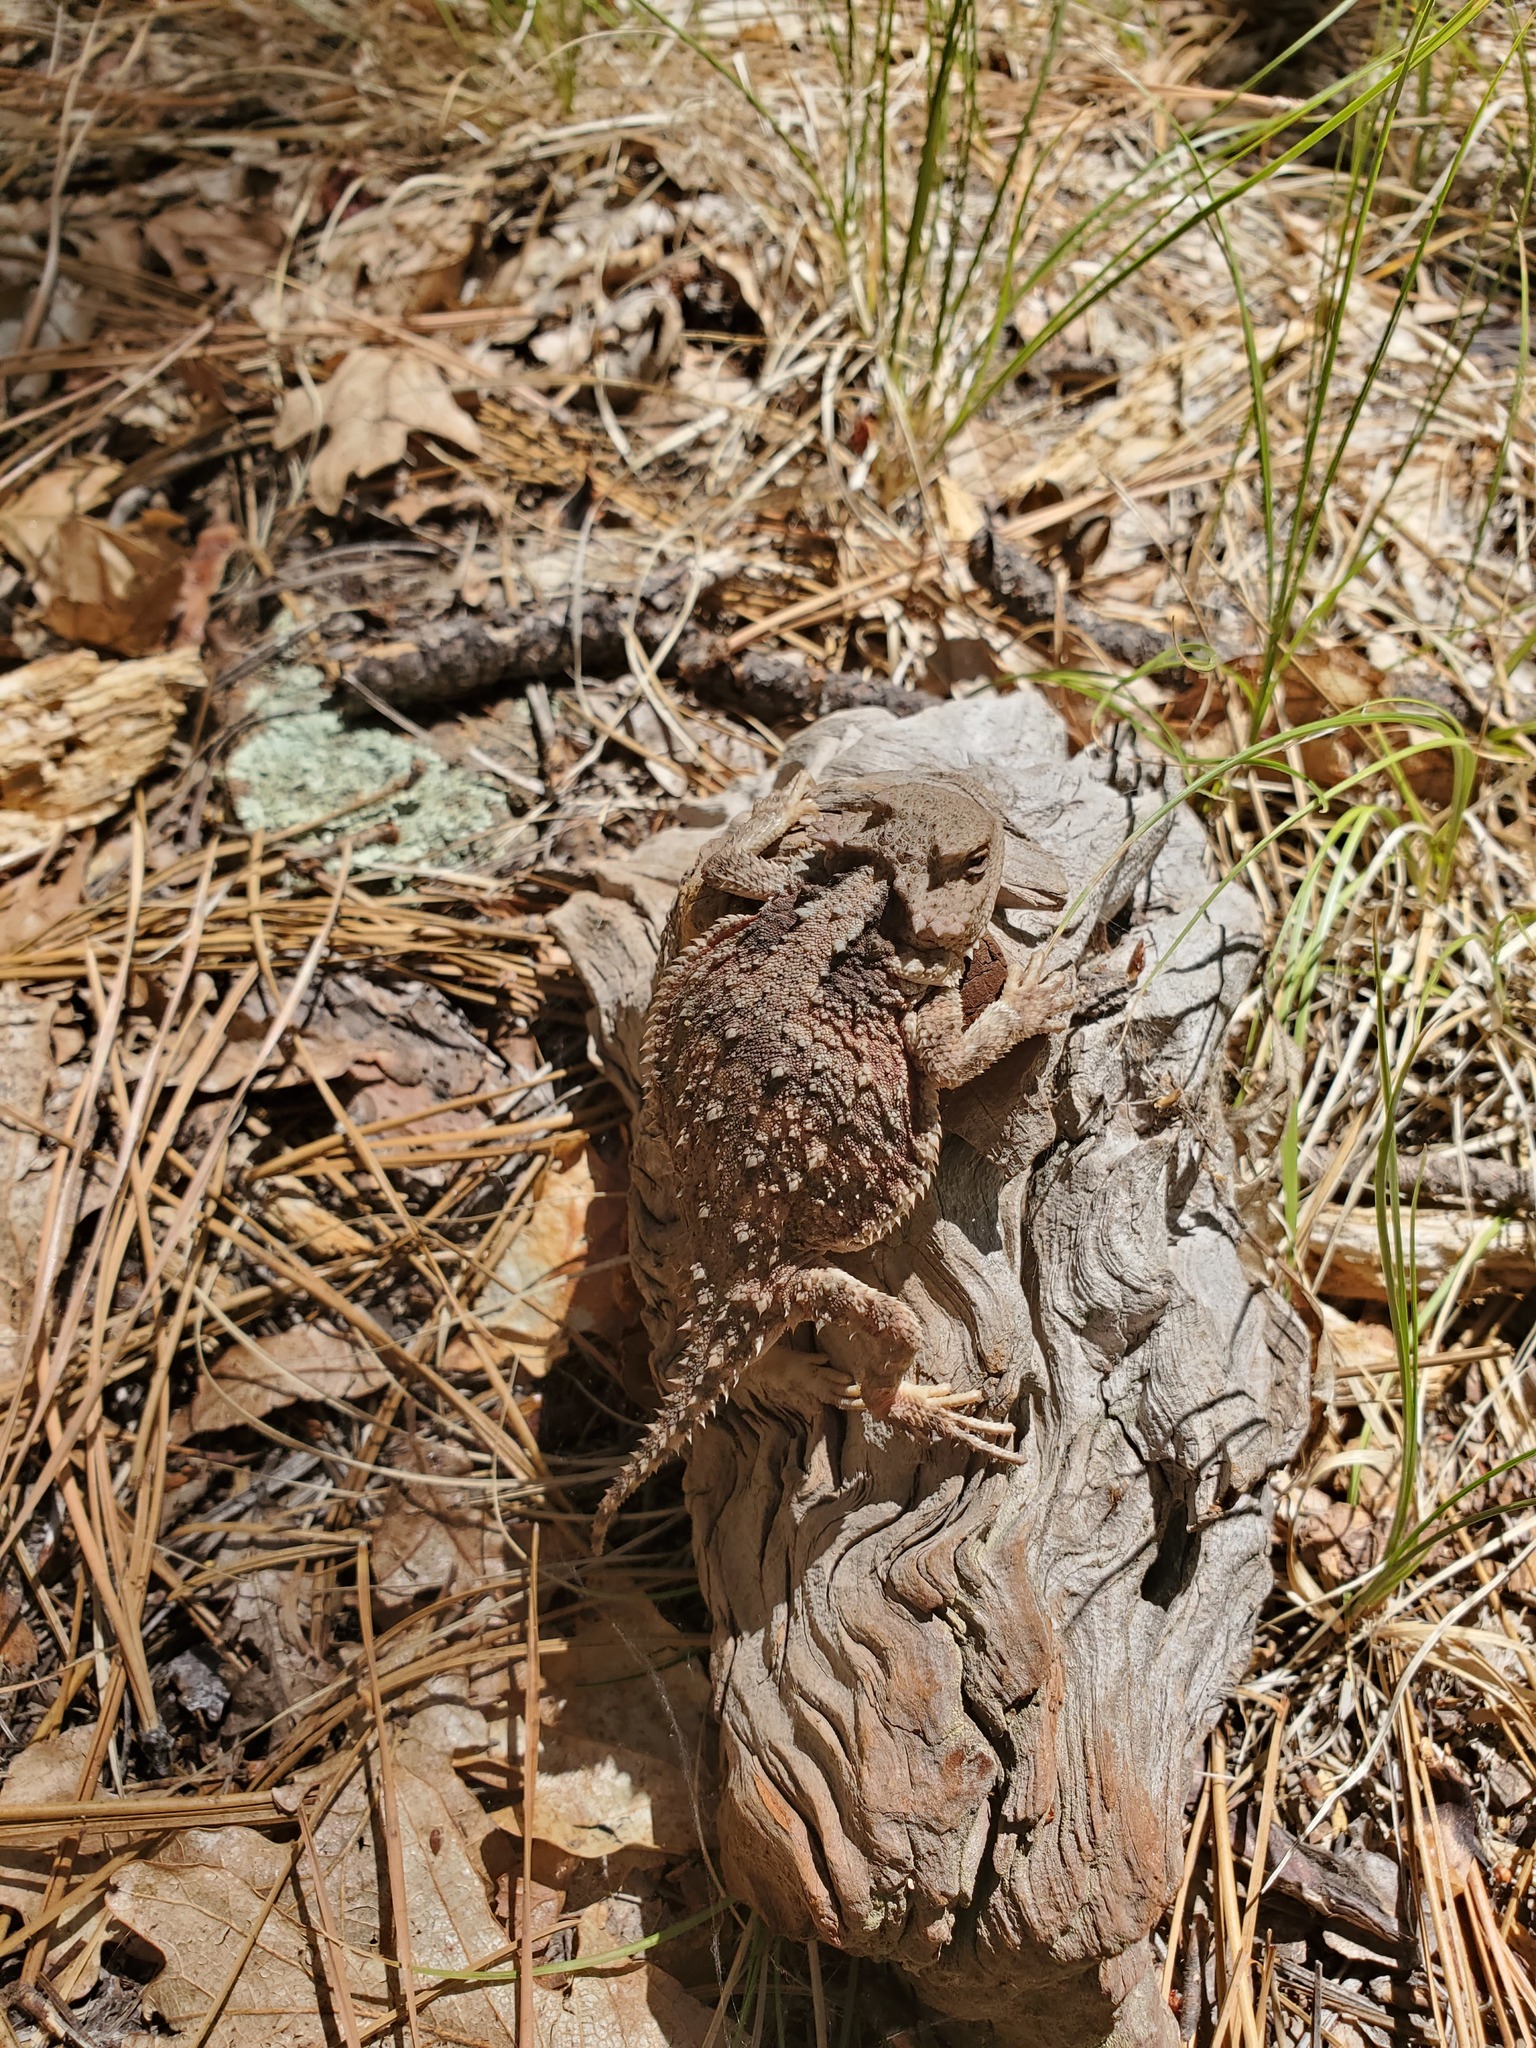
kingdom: Animalia
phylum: Chordata
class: Squamata
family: Phrynosomatidae
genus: Phrynosoma
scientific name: Phrynosoma hernandesi
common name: Greater short-horned lizard
